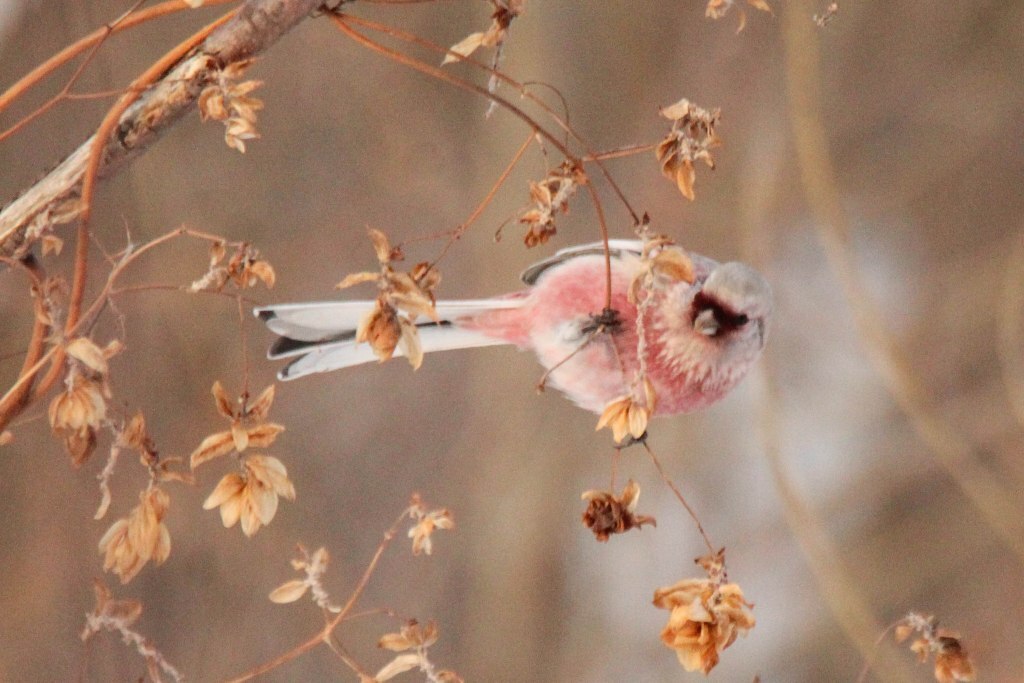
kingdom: Animalia
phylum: Chordata
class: Aves
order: Passeriformes
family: Fringillidae
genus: Carpodacus
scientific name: Carpodacus sibiricus
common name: Long-tailed rosefinch
